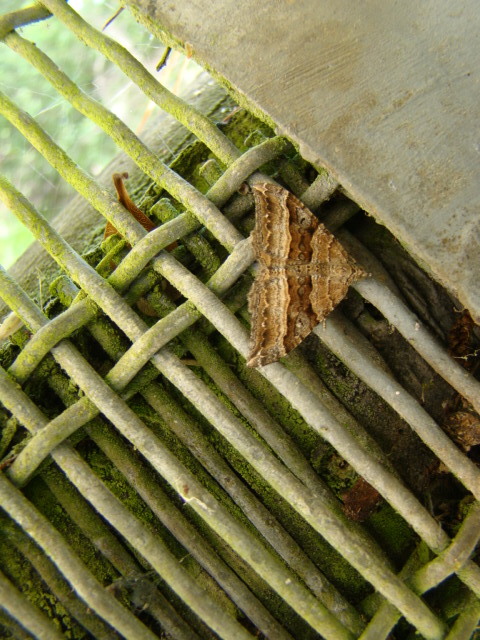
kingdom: Animalia
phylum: Arthropoda
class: Insecta
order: Lepidoptera
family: Geometridae
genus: Hydriomena
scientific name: Hydriomena deltoidata
